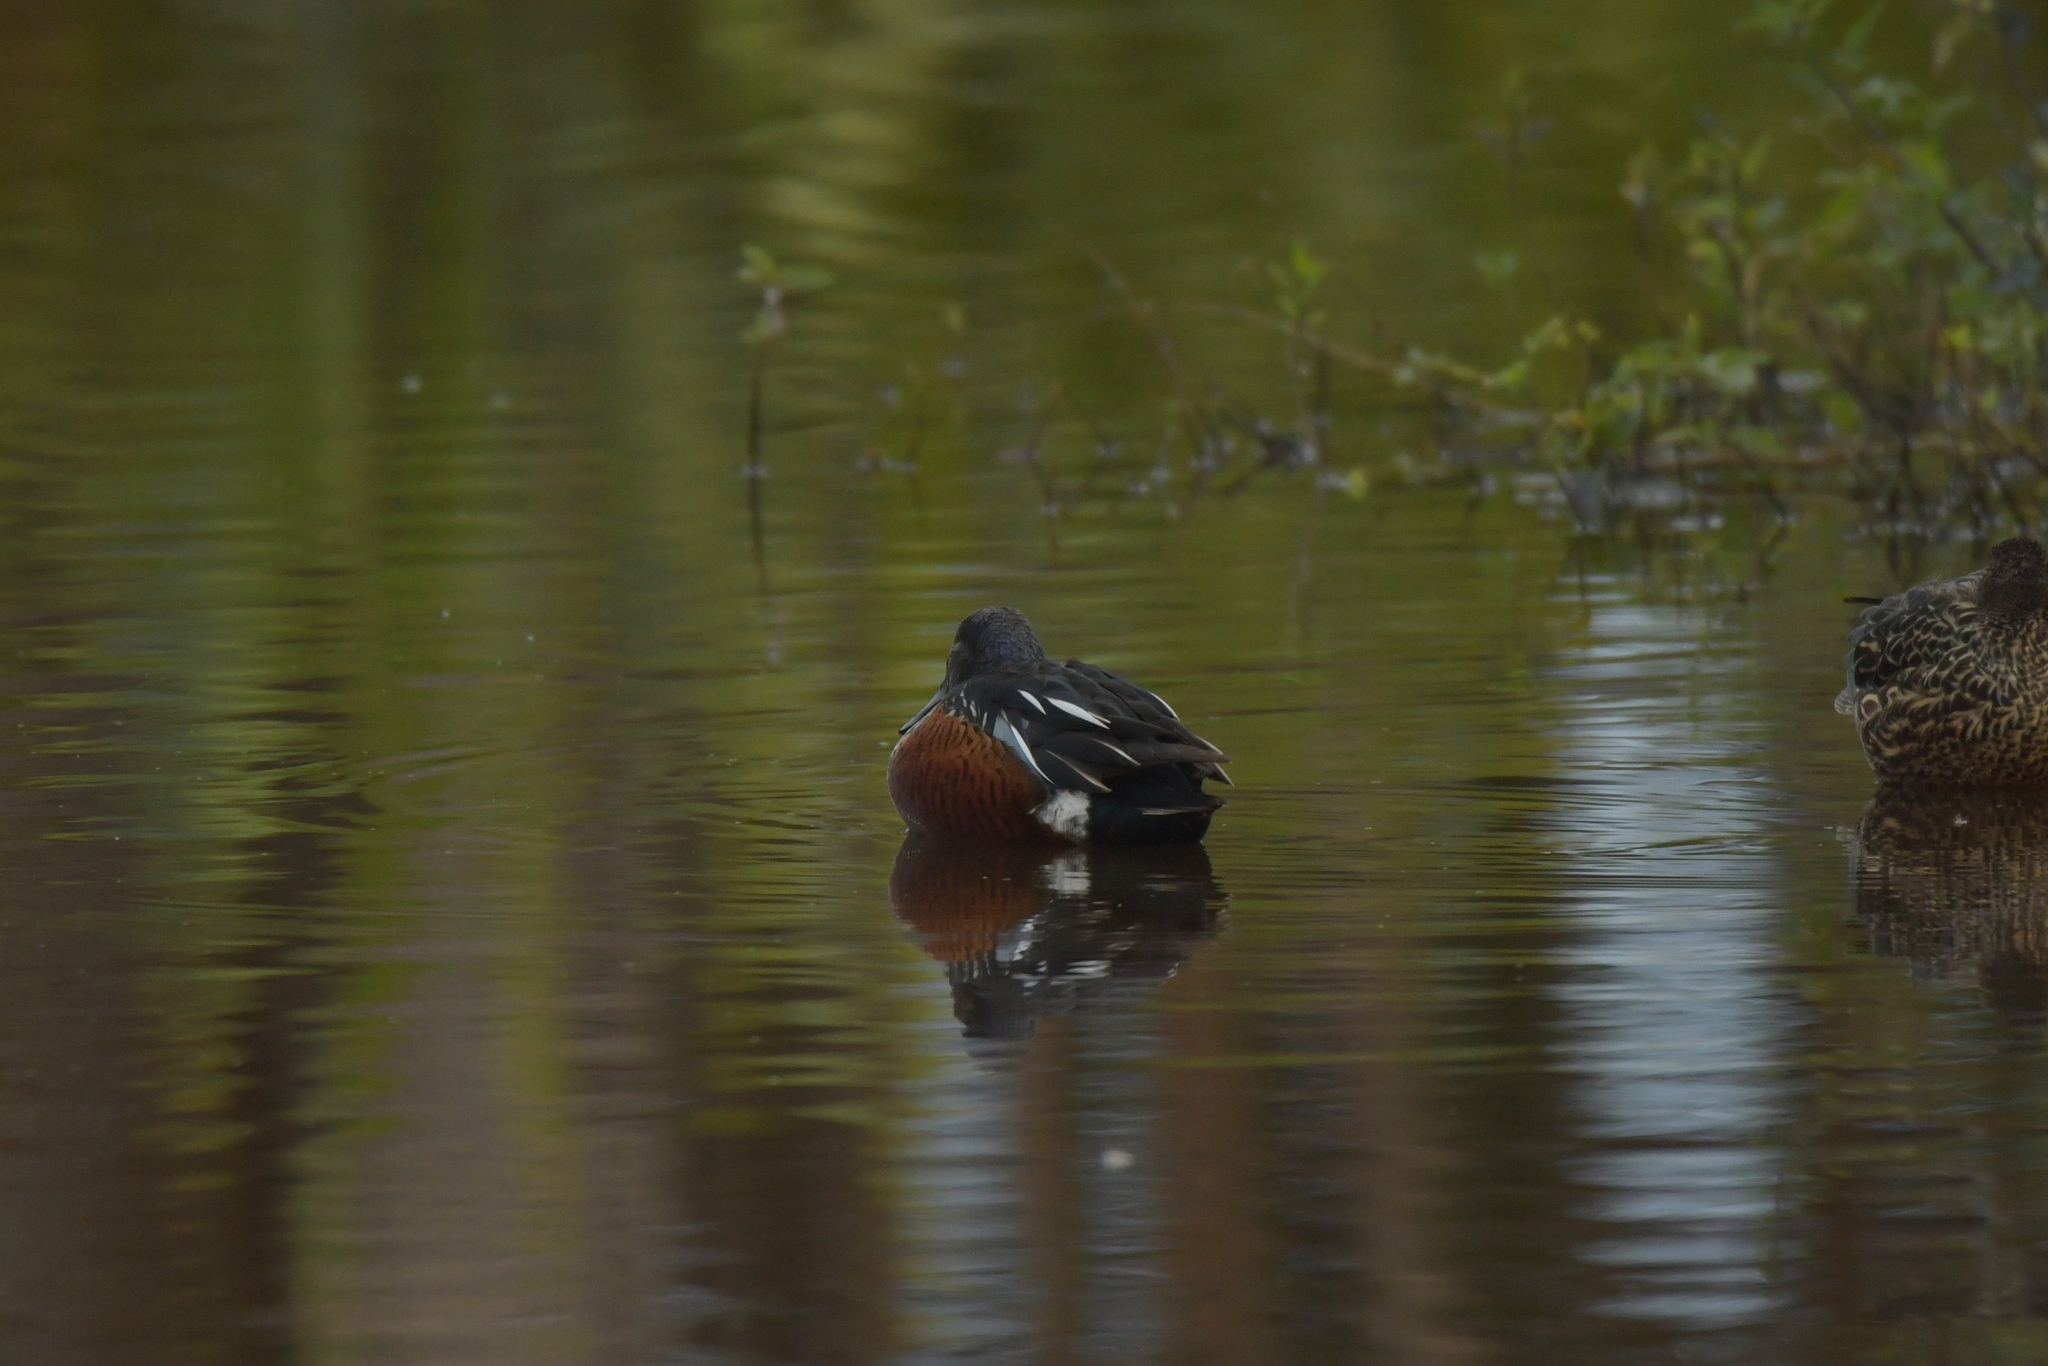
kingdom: Animalia
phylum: Chordata
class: Aves
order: Anseriformes
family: Anatidae
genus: Spatula
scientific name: Spatula rhynchotis
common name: Australian shoveler
